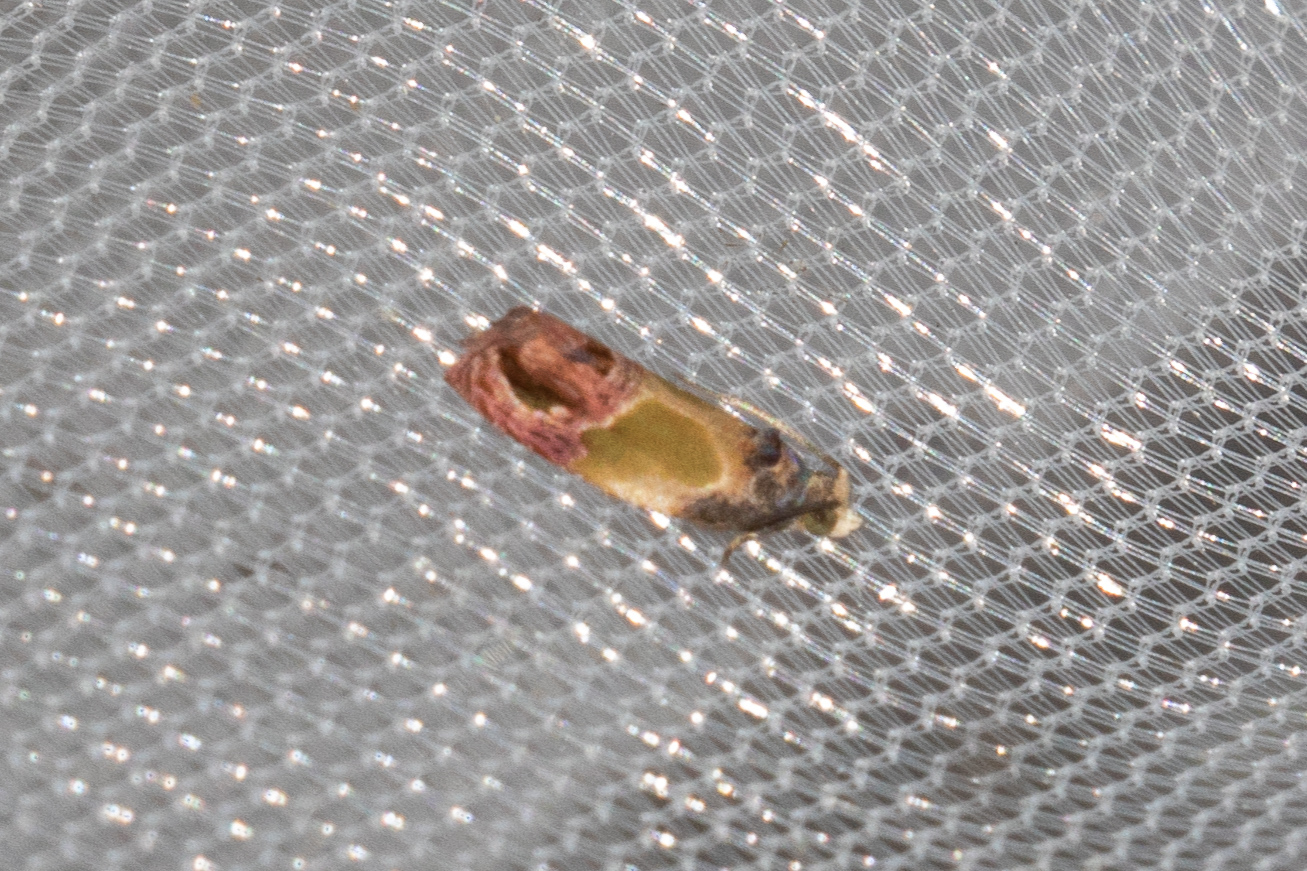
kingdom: Animalia
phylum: Arthropoda
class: Insecta
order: Lepidoptera
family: Tortricidae
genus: Eumarozia
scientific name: Eumarozia malachitana
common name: Sculptured moth
